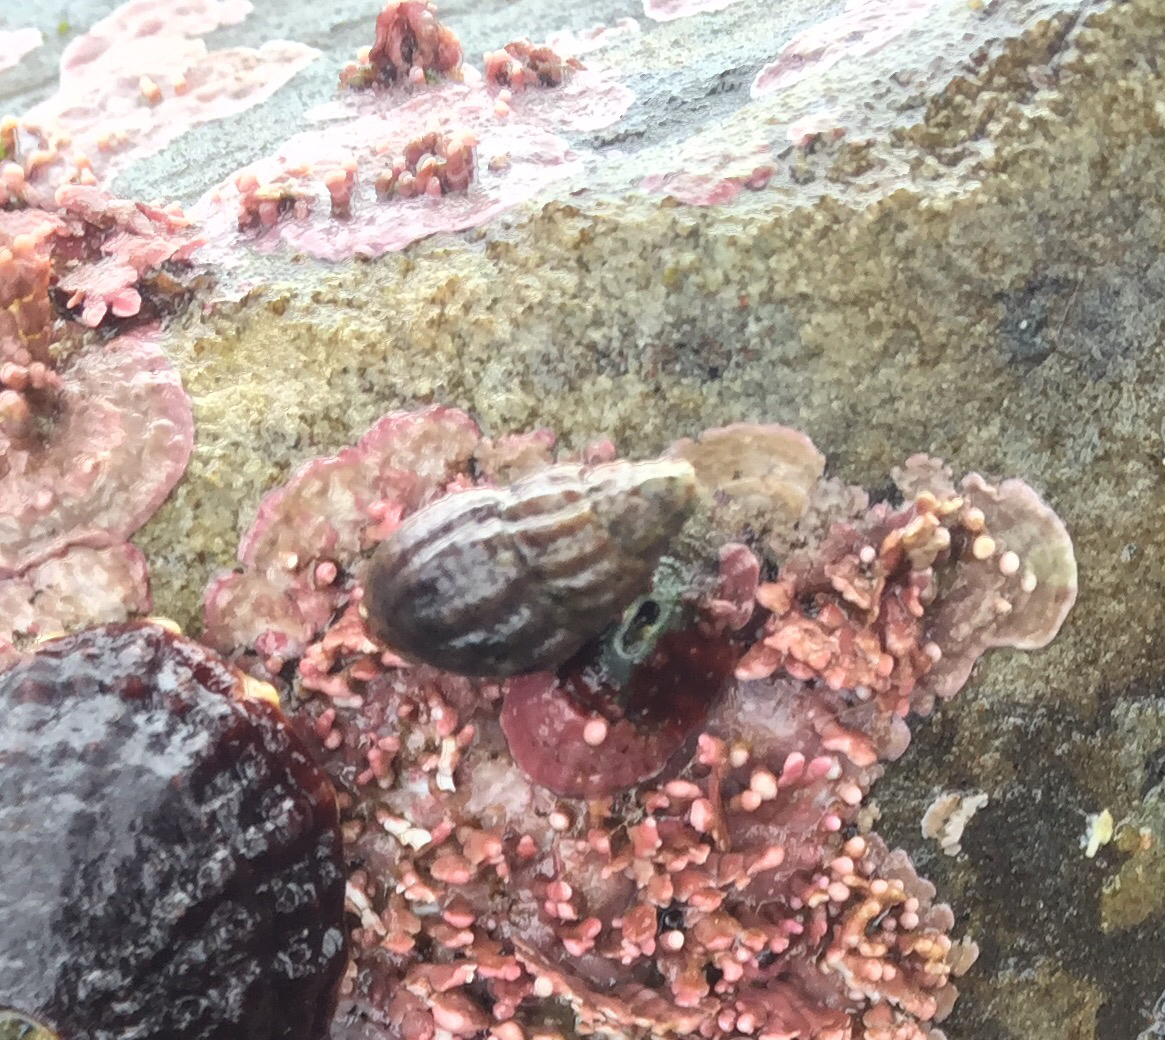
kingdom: Animalia
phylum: Mollusca
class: Gastropoda
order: Neogastropoda
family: Columbellidae
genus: Amphissa
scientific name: Amphissa columbiana
